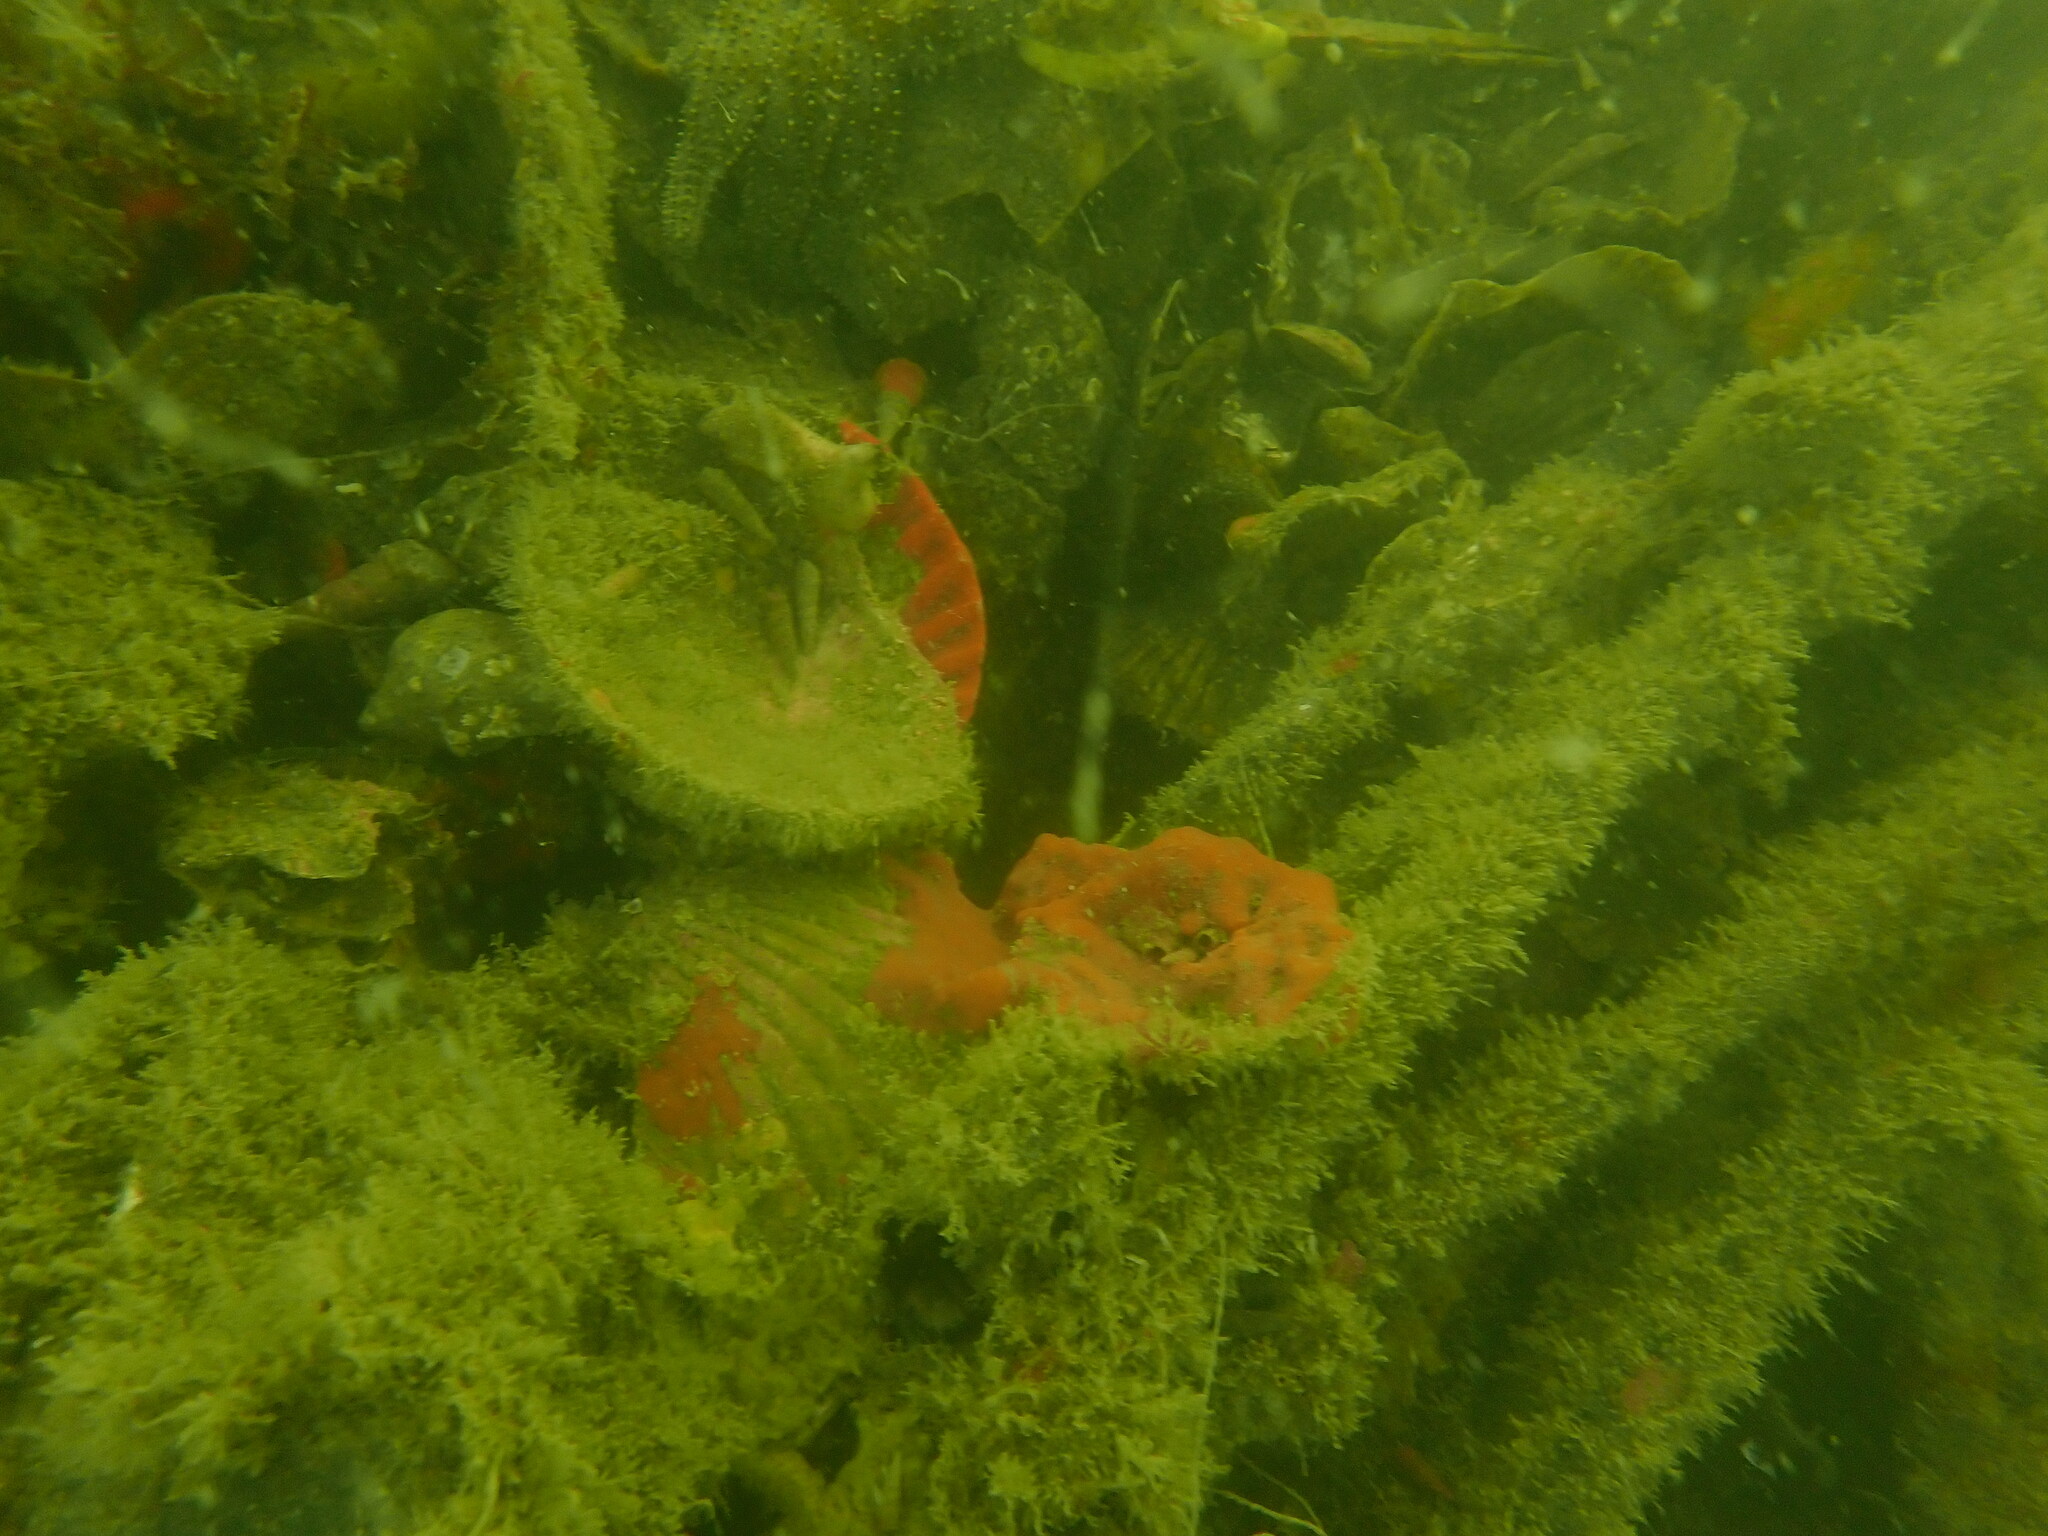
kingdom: Animalia
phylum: Mollusca
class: Bivalvia
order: Pectinida
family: Pectinidae
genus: Pecten
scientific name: Pecten novaezelandiae
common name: New zealand scallop
